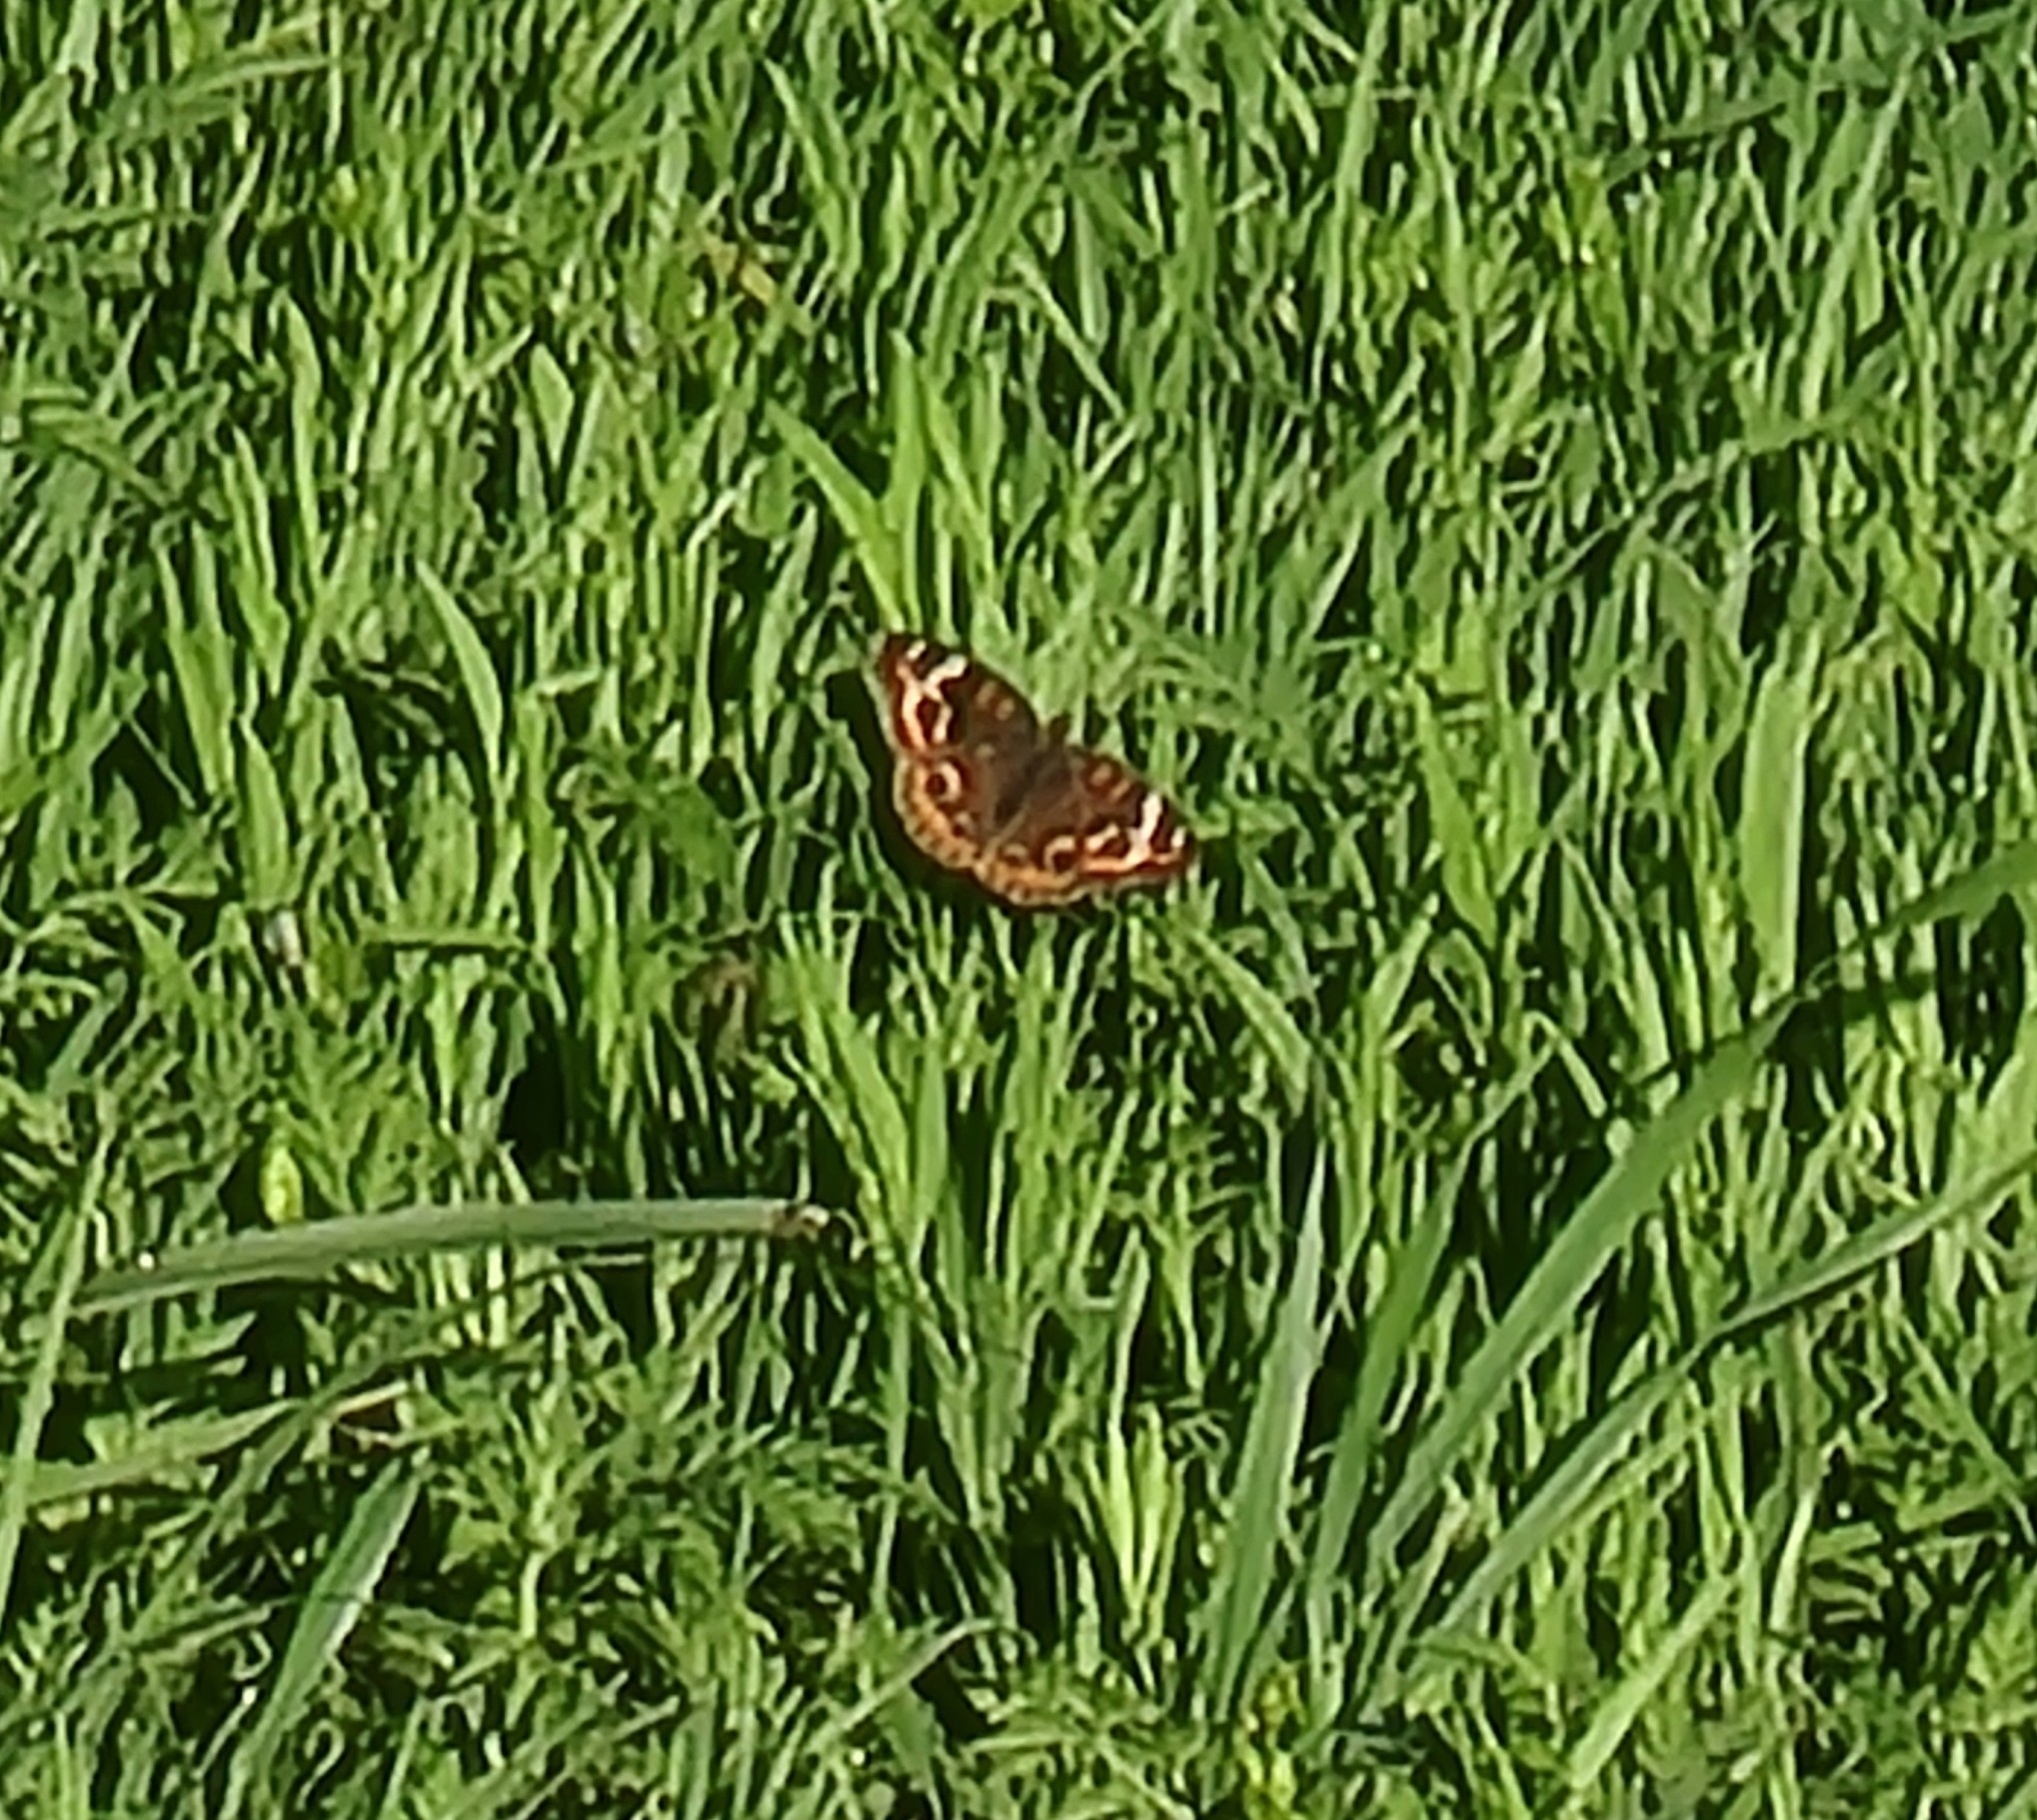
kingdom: Animalia
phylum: Arthropoda
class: Insecta
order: Lepidoptera
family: Nymphalidae
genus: Junonia
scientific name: Junonia coenia
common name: Common buckeye
